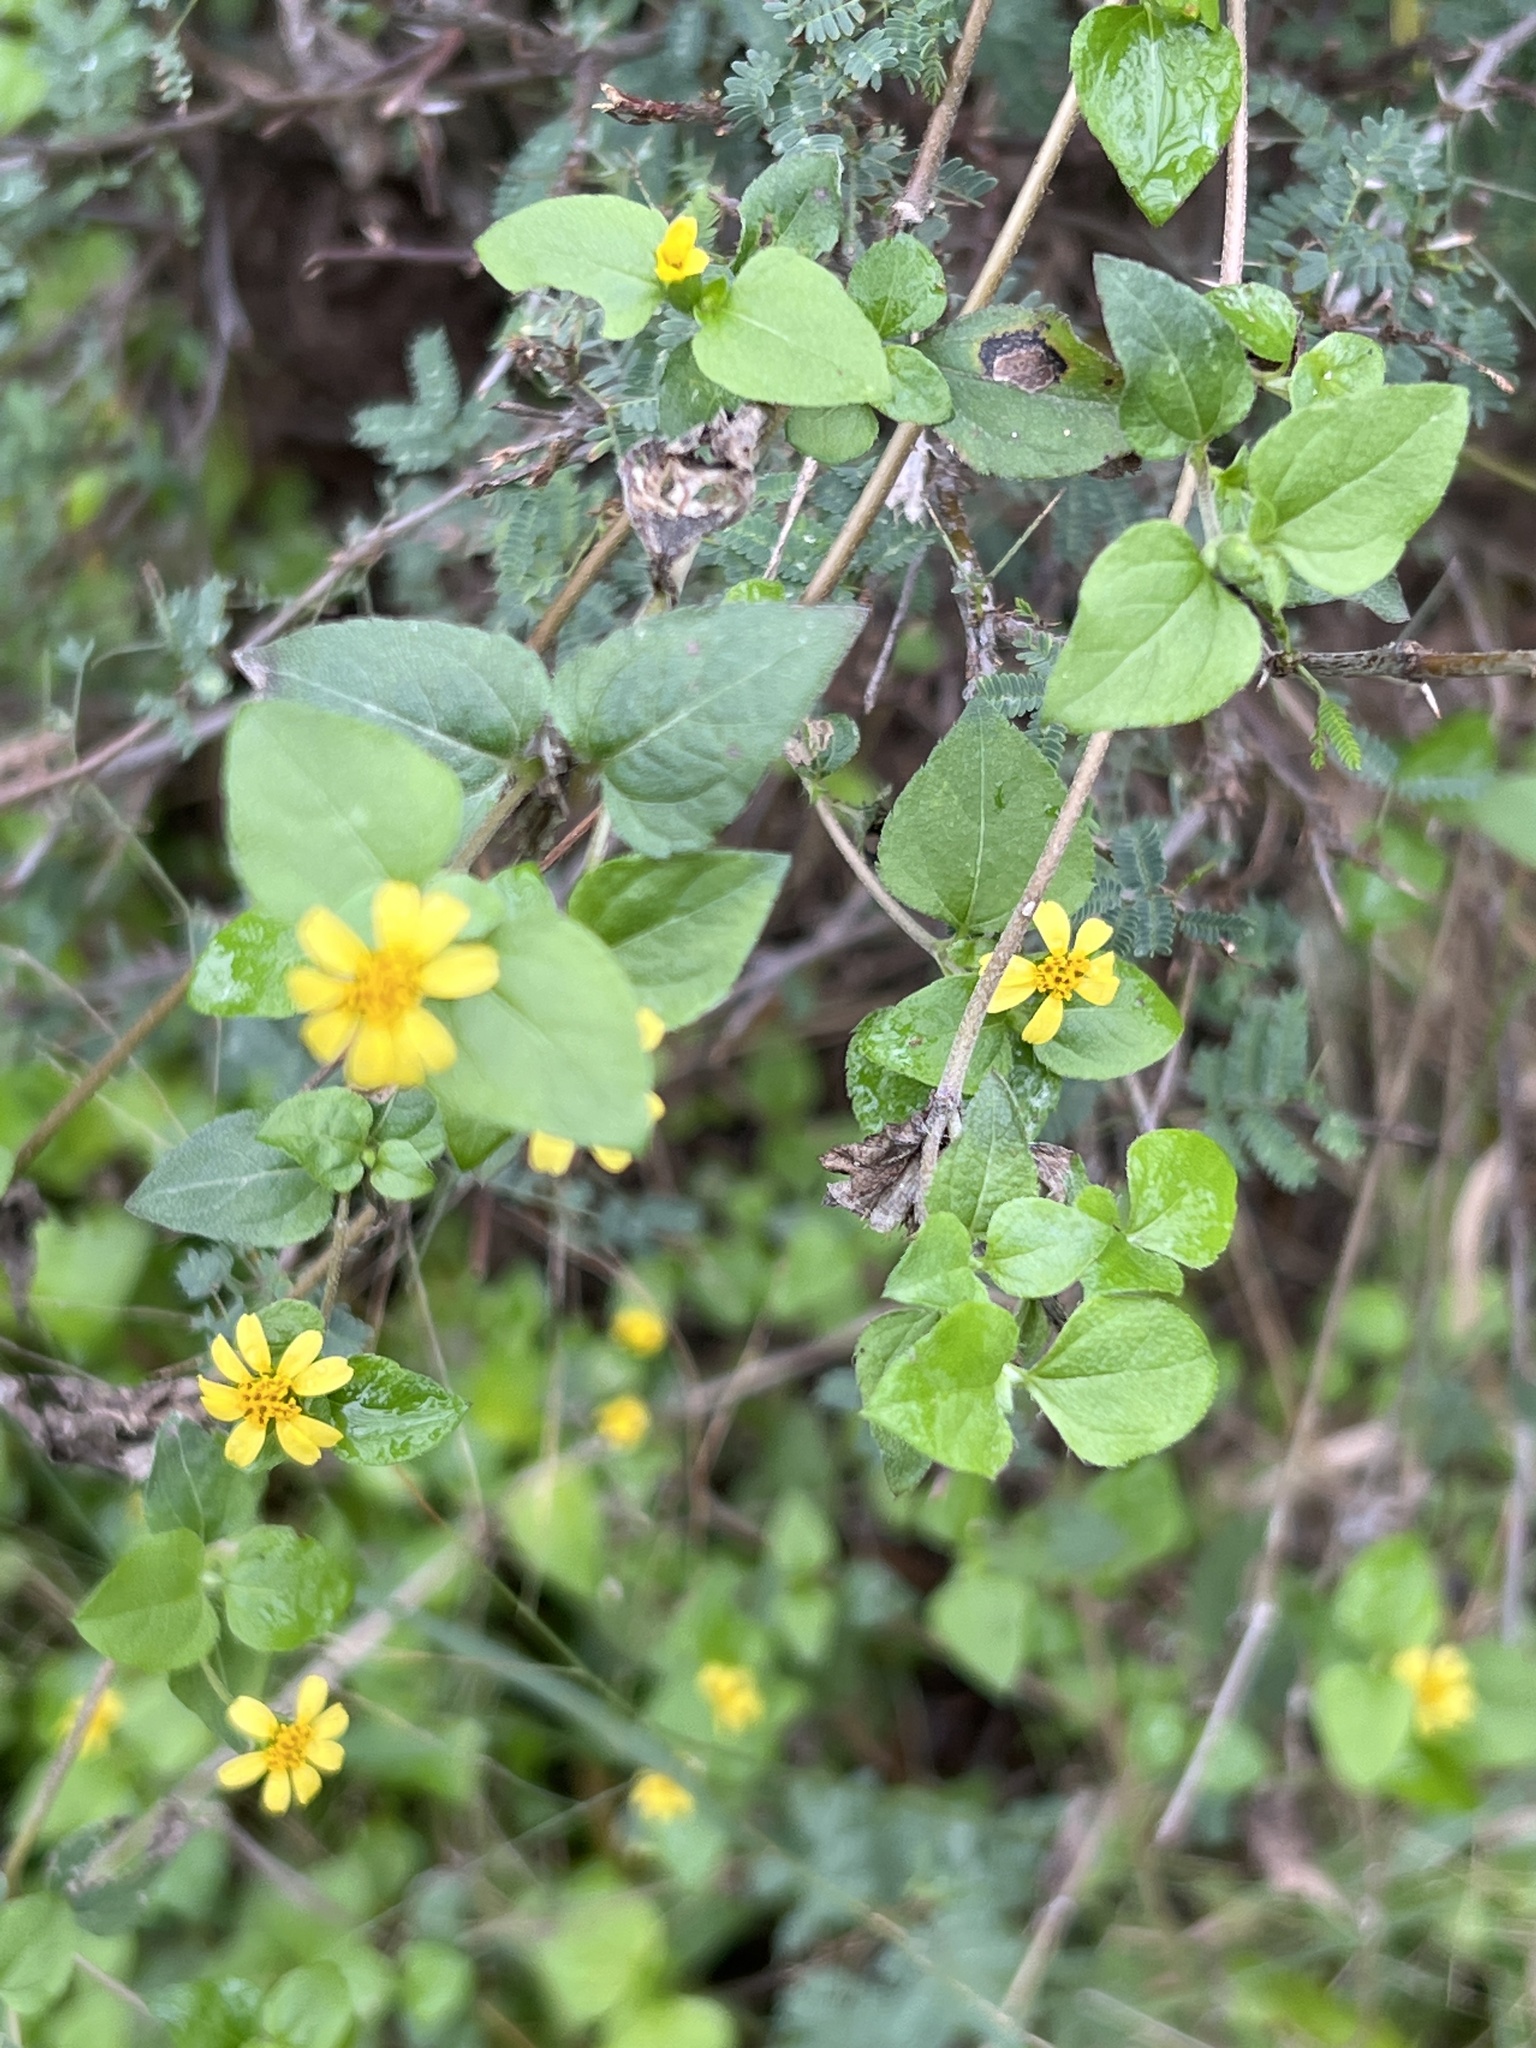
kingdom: Plantae
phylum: Tracheophyta
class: Magnoliopsida
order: Asterales
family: Asteraceae
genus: Calyptocarpus
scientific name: Calyptocarpus vialis
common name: Straggler daisy
